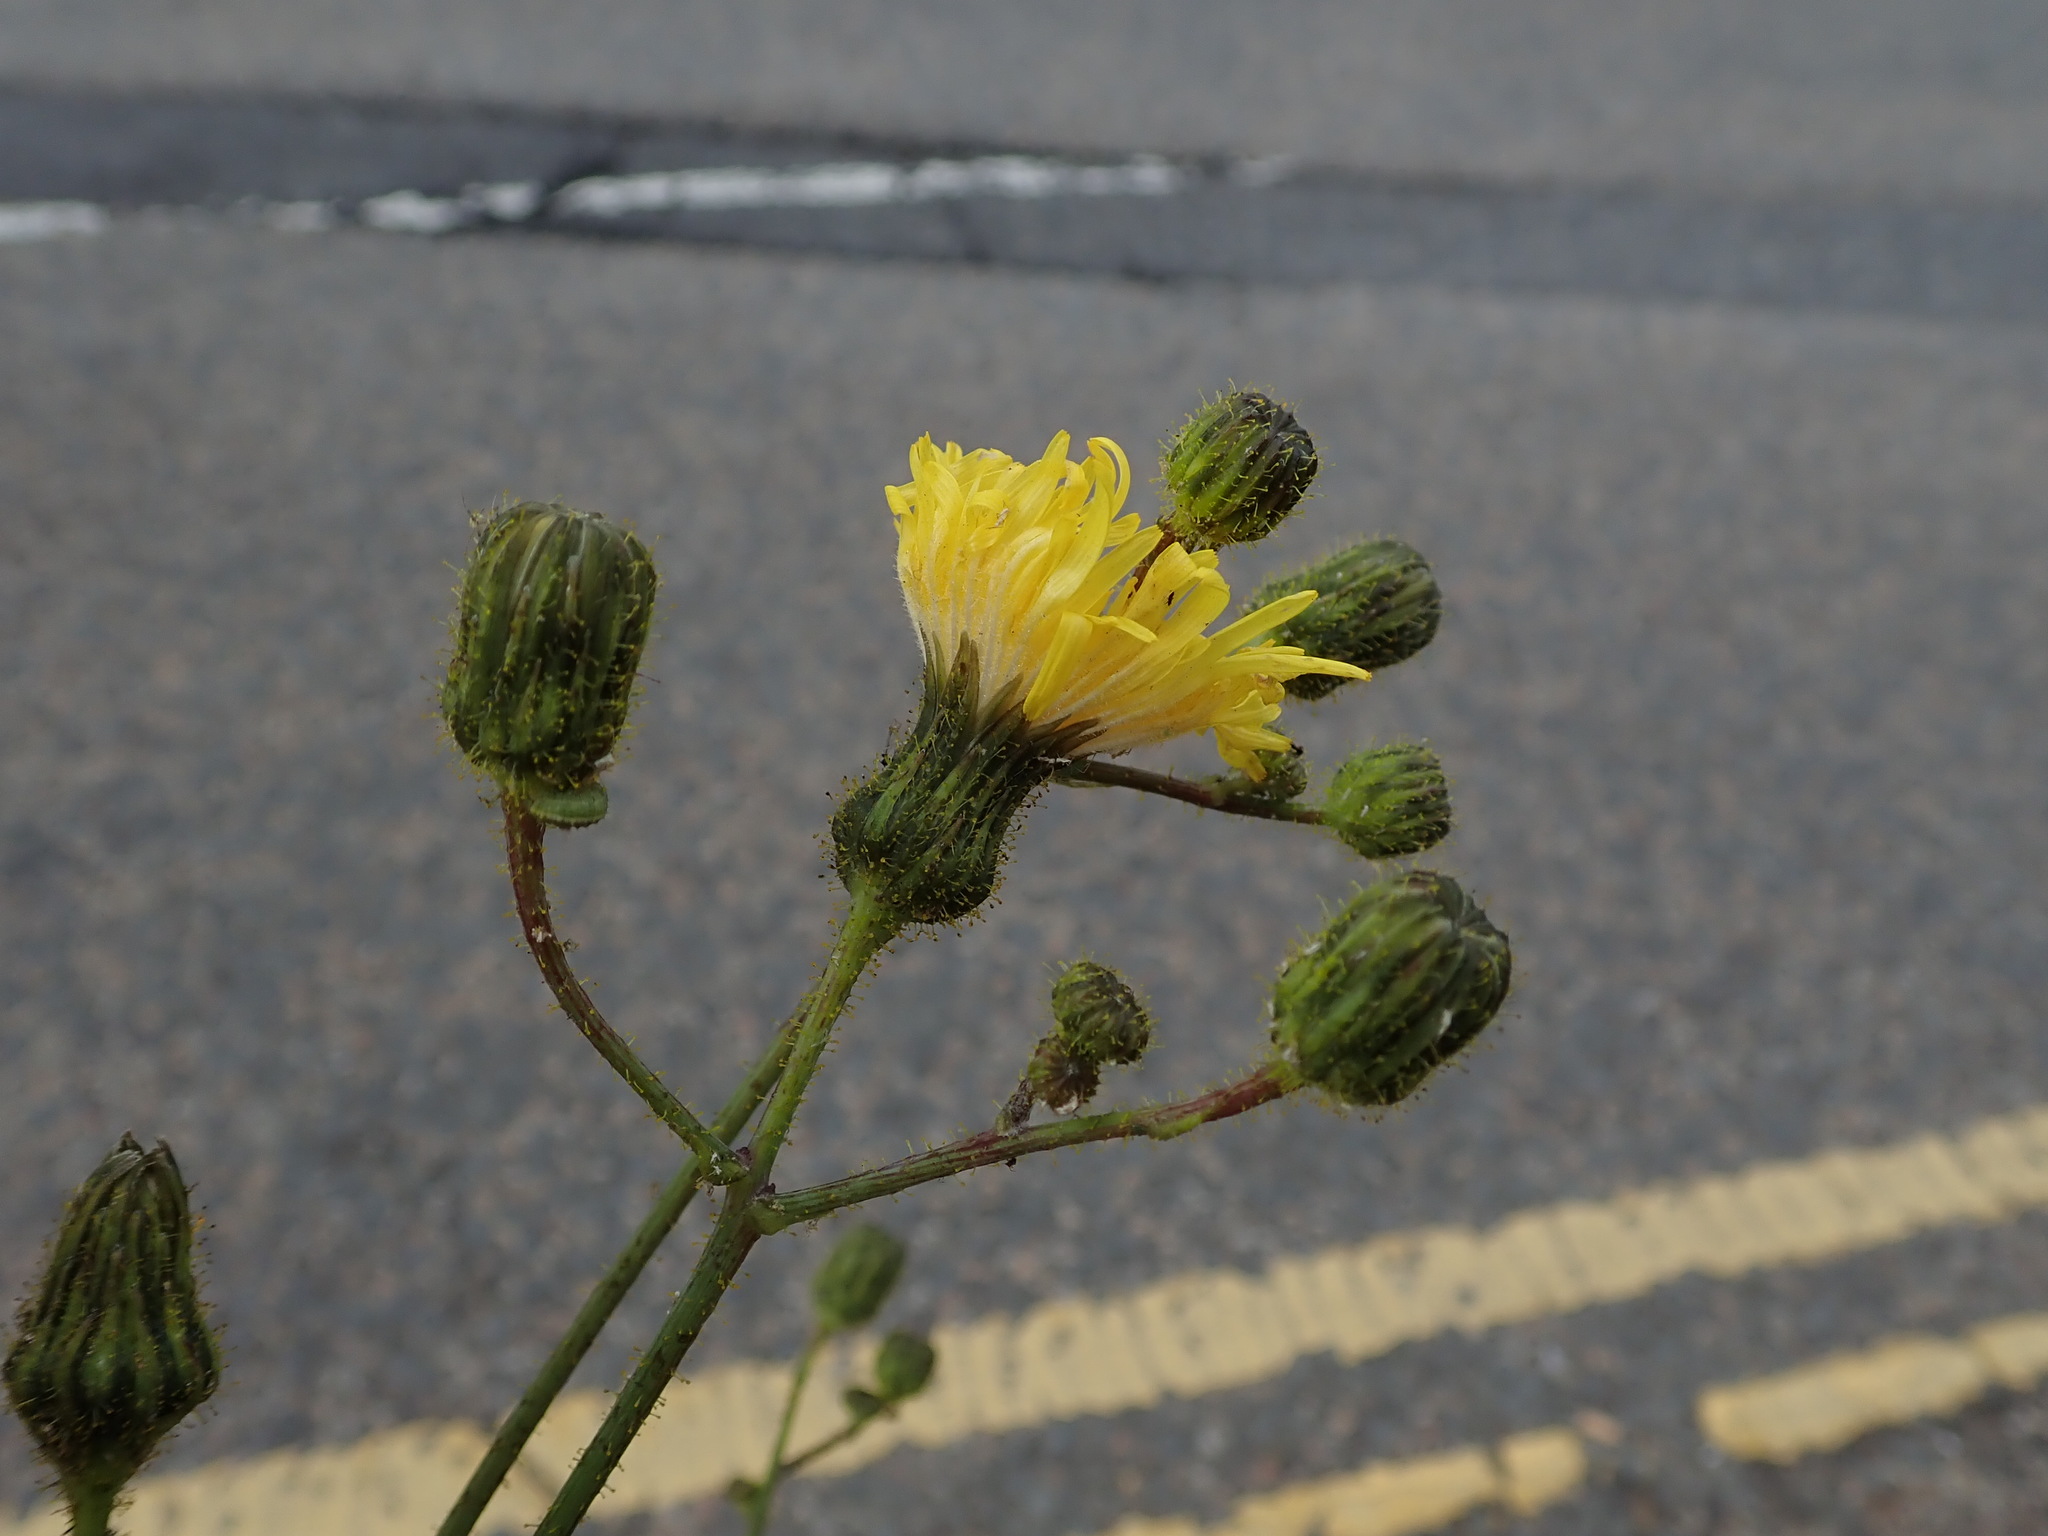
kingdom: Plantae
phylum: Tracheophyta
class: Magnoliopsida
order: Asterales
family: Asteraceae
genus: Sonchus
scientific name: Sonchus arvensis
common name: Perennial sow-thistle
